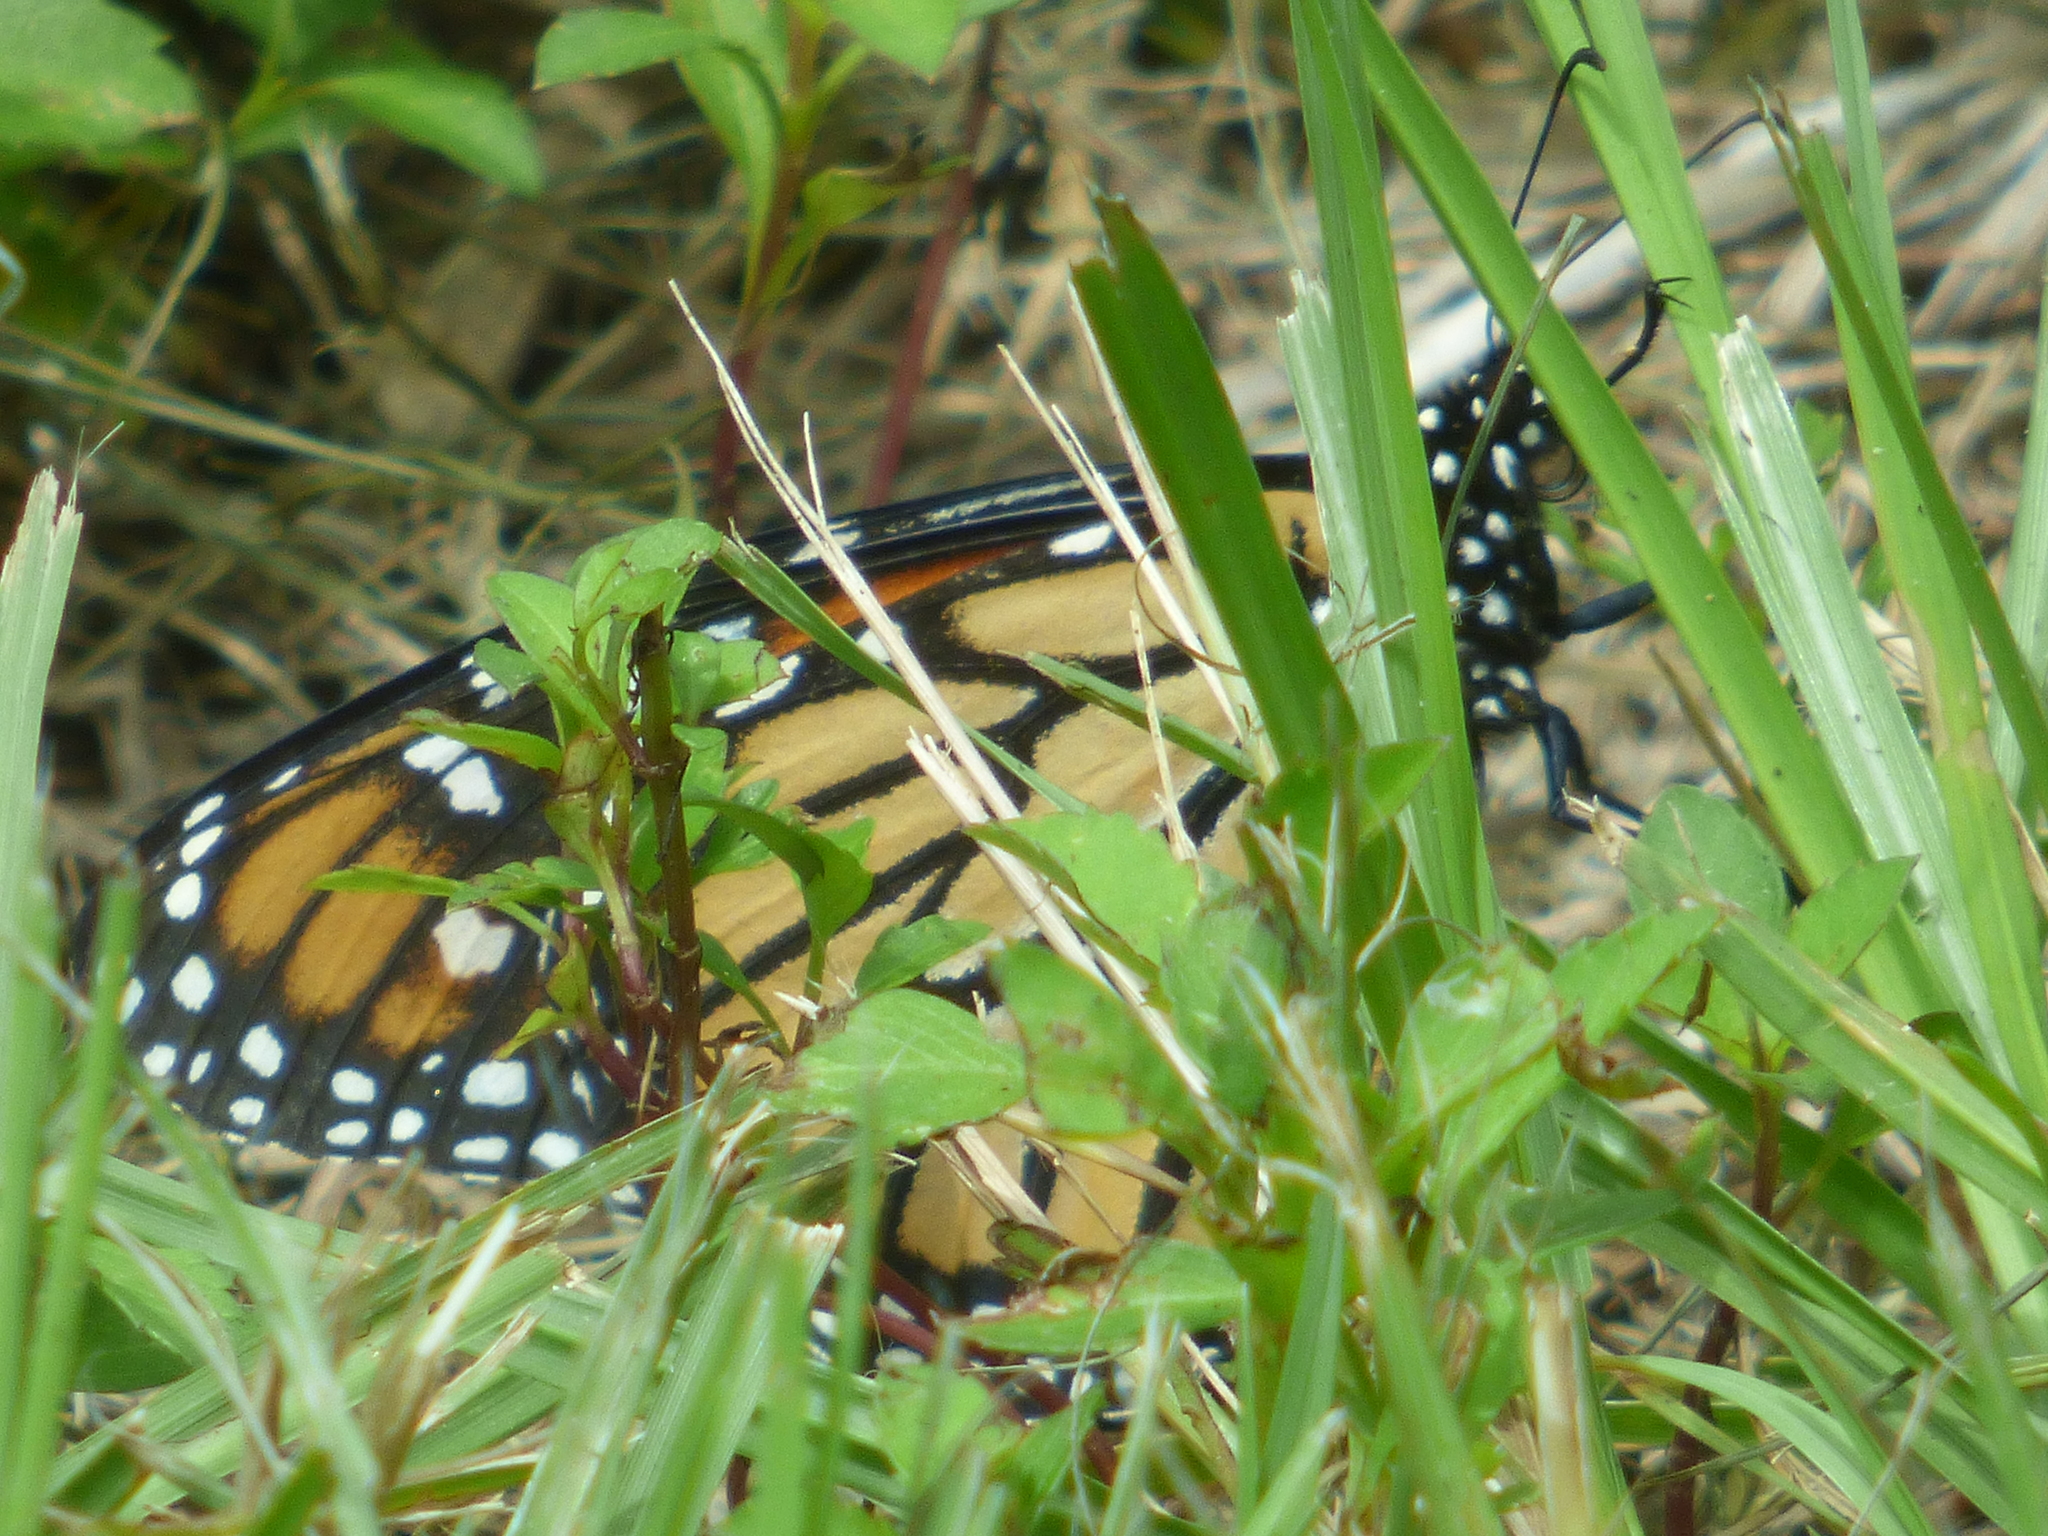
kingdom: Animalia
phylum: Arthropoda
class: Insecta
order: Lepidoptera
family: Nymphalidae
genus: Danaus
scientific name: Danaus plexippus
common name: Monarch
